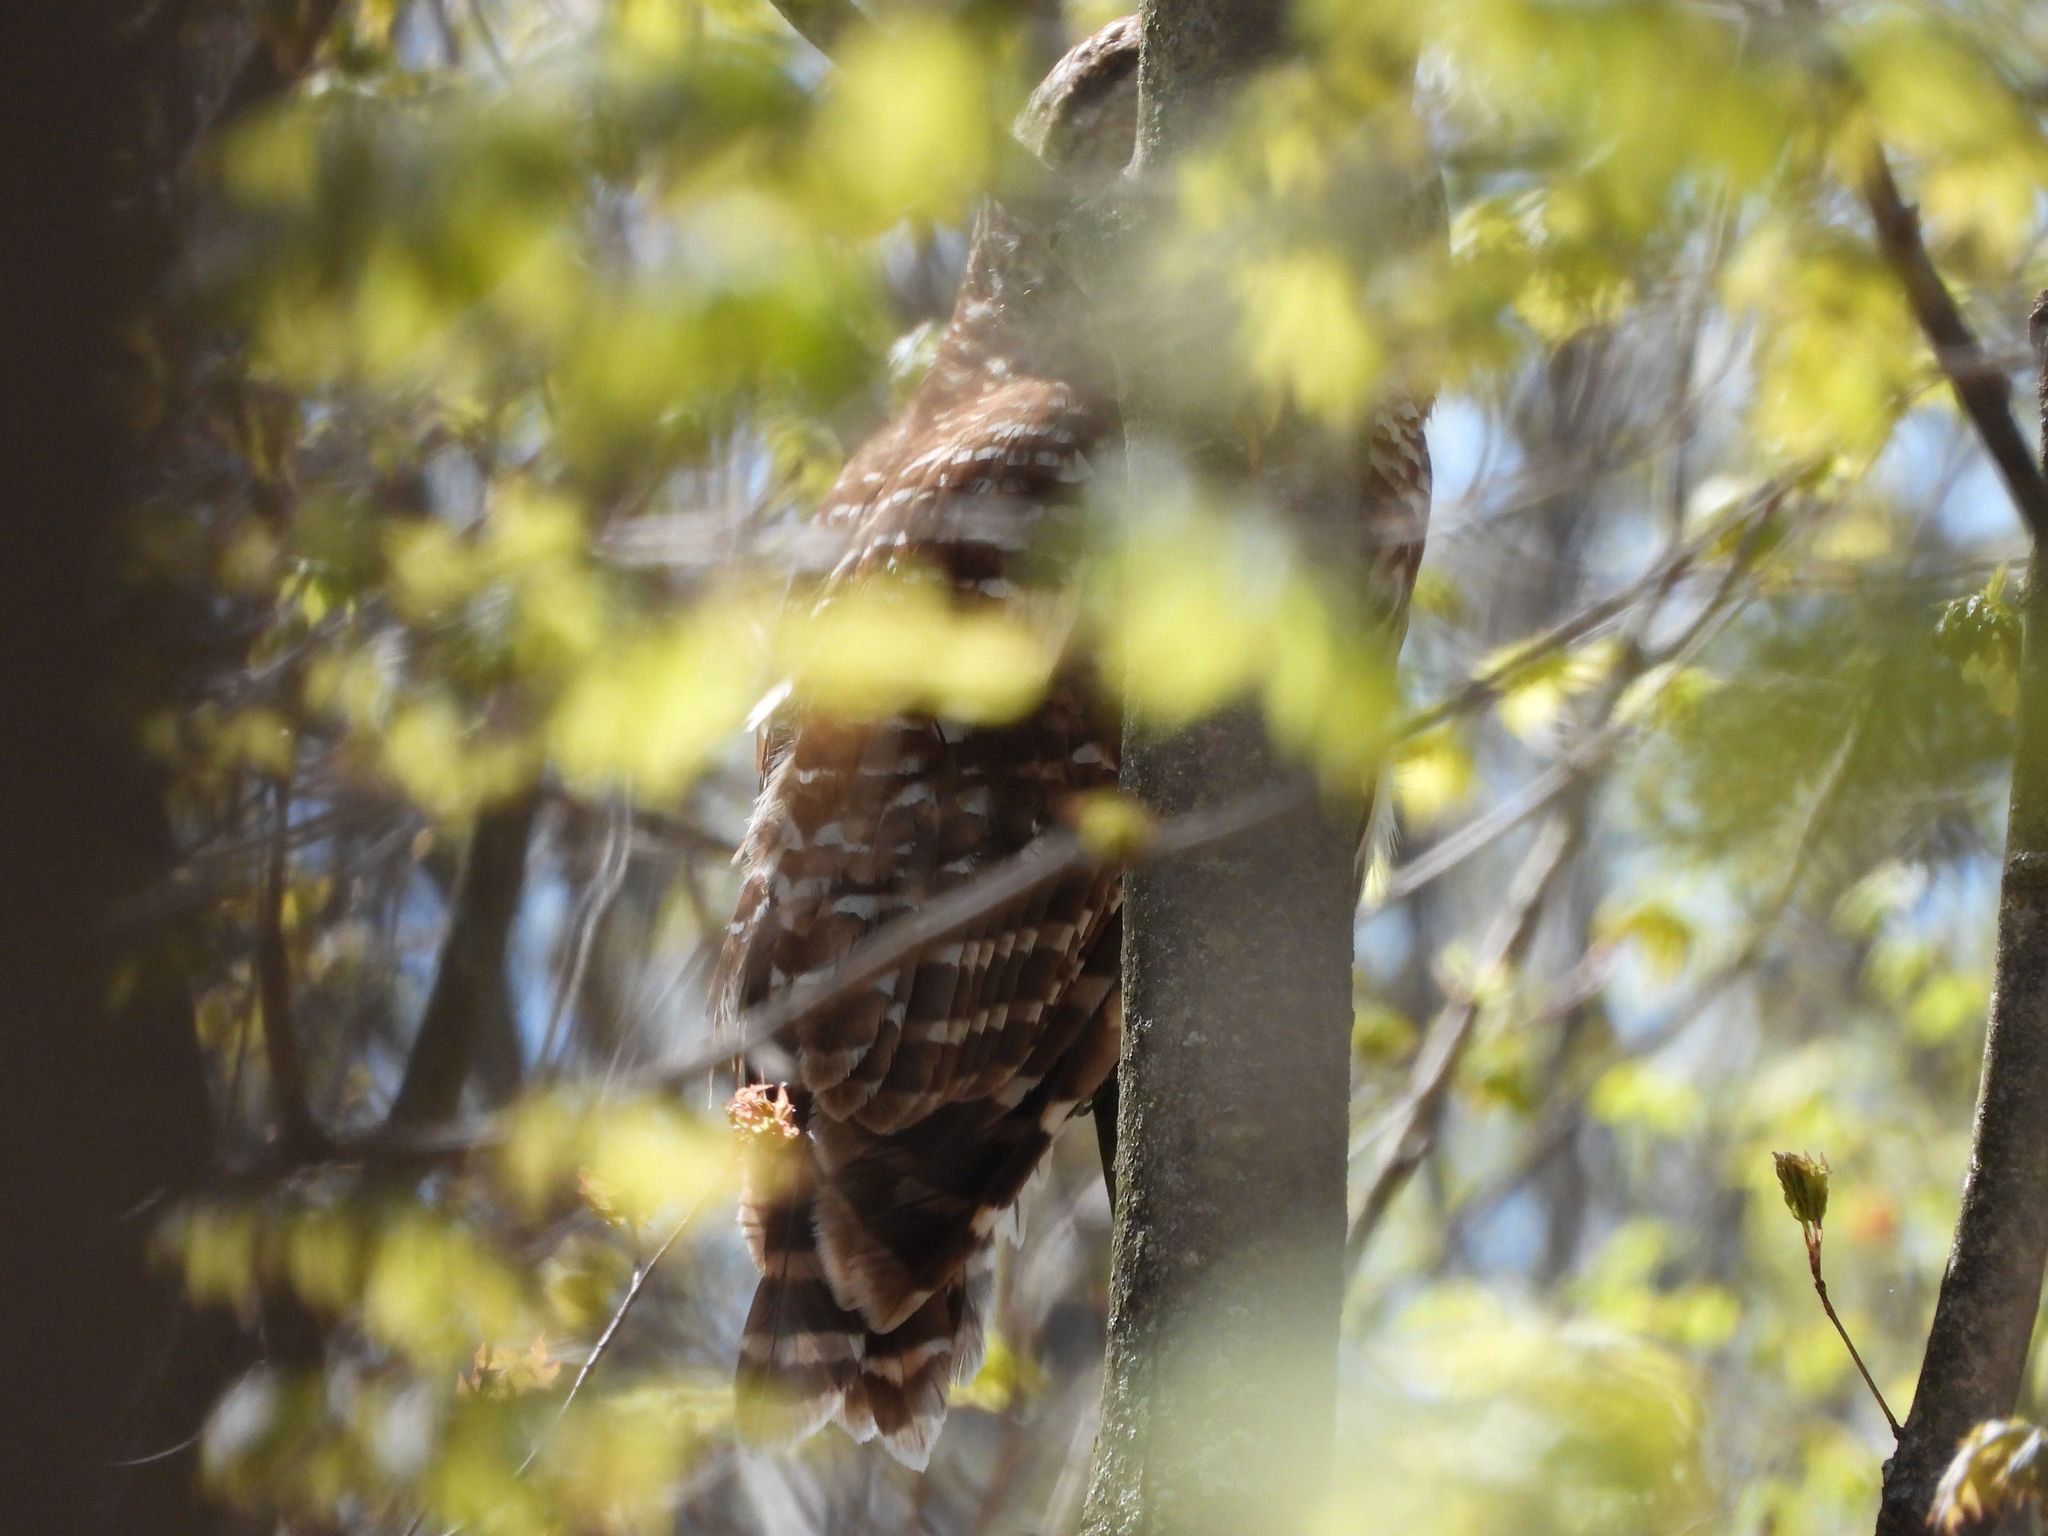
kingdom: Animalia
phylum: Chordata
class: Aves
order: Strigiformes
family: Strigidae
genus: Strix
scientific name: Strix varia
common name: Barred owl
